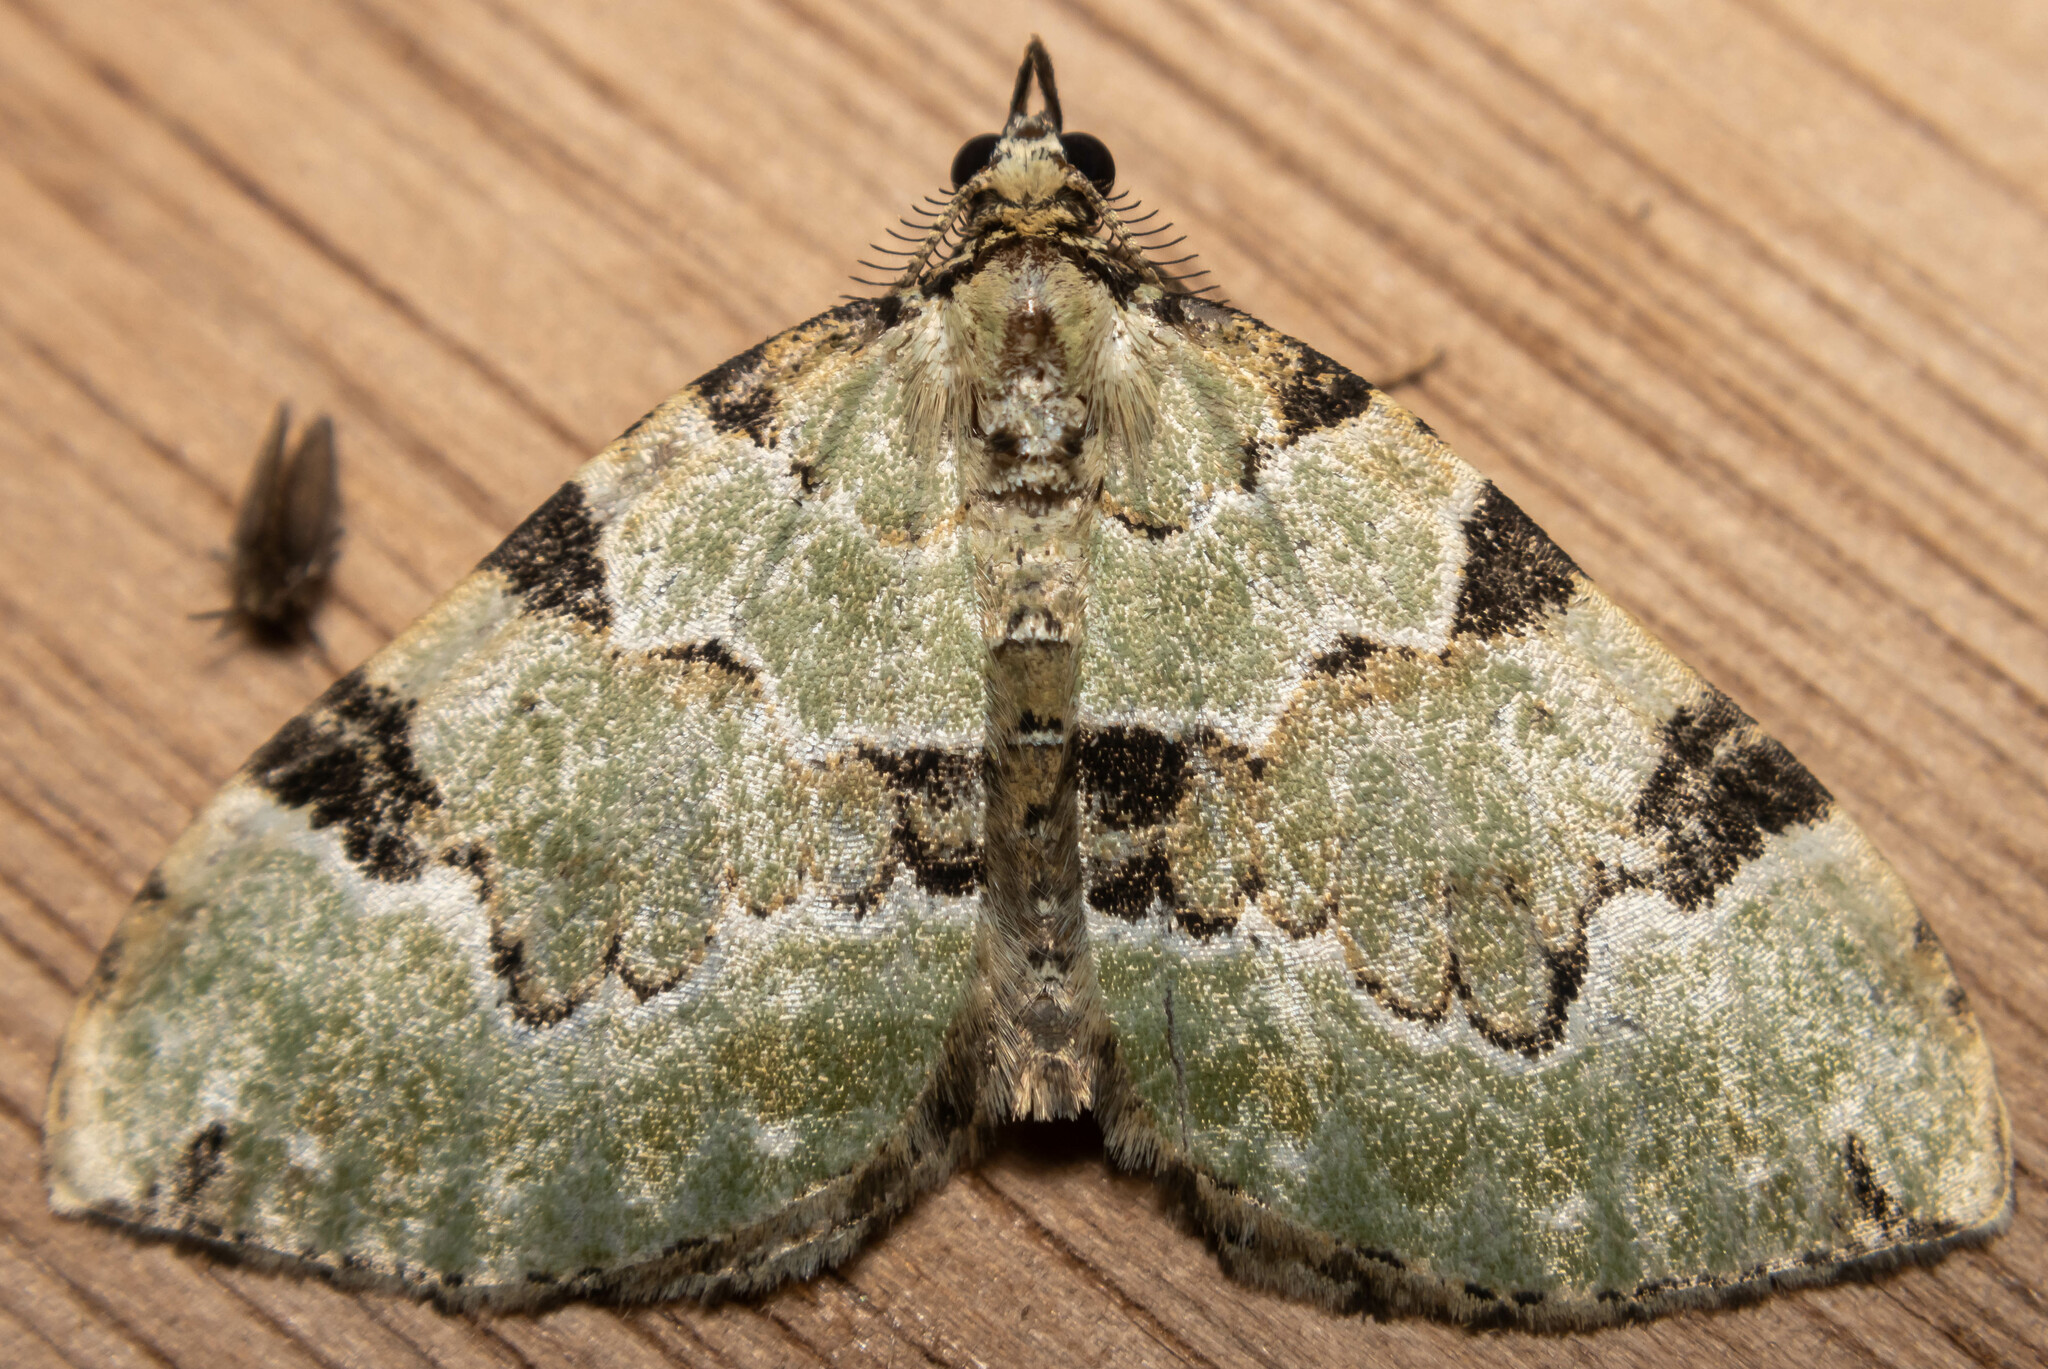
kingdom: Animalia
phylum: Arthropoda
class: Insecta
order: Lepidoptera
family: Geometridae
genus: Colostygia
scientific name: Colostygia pectinataria
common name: Green carpet
